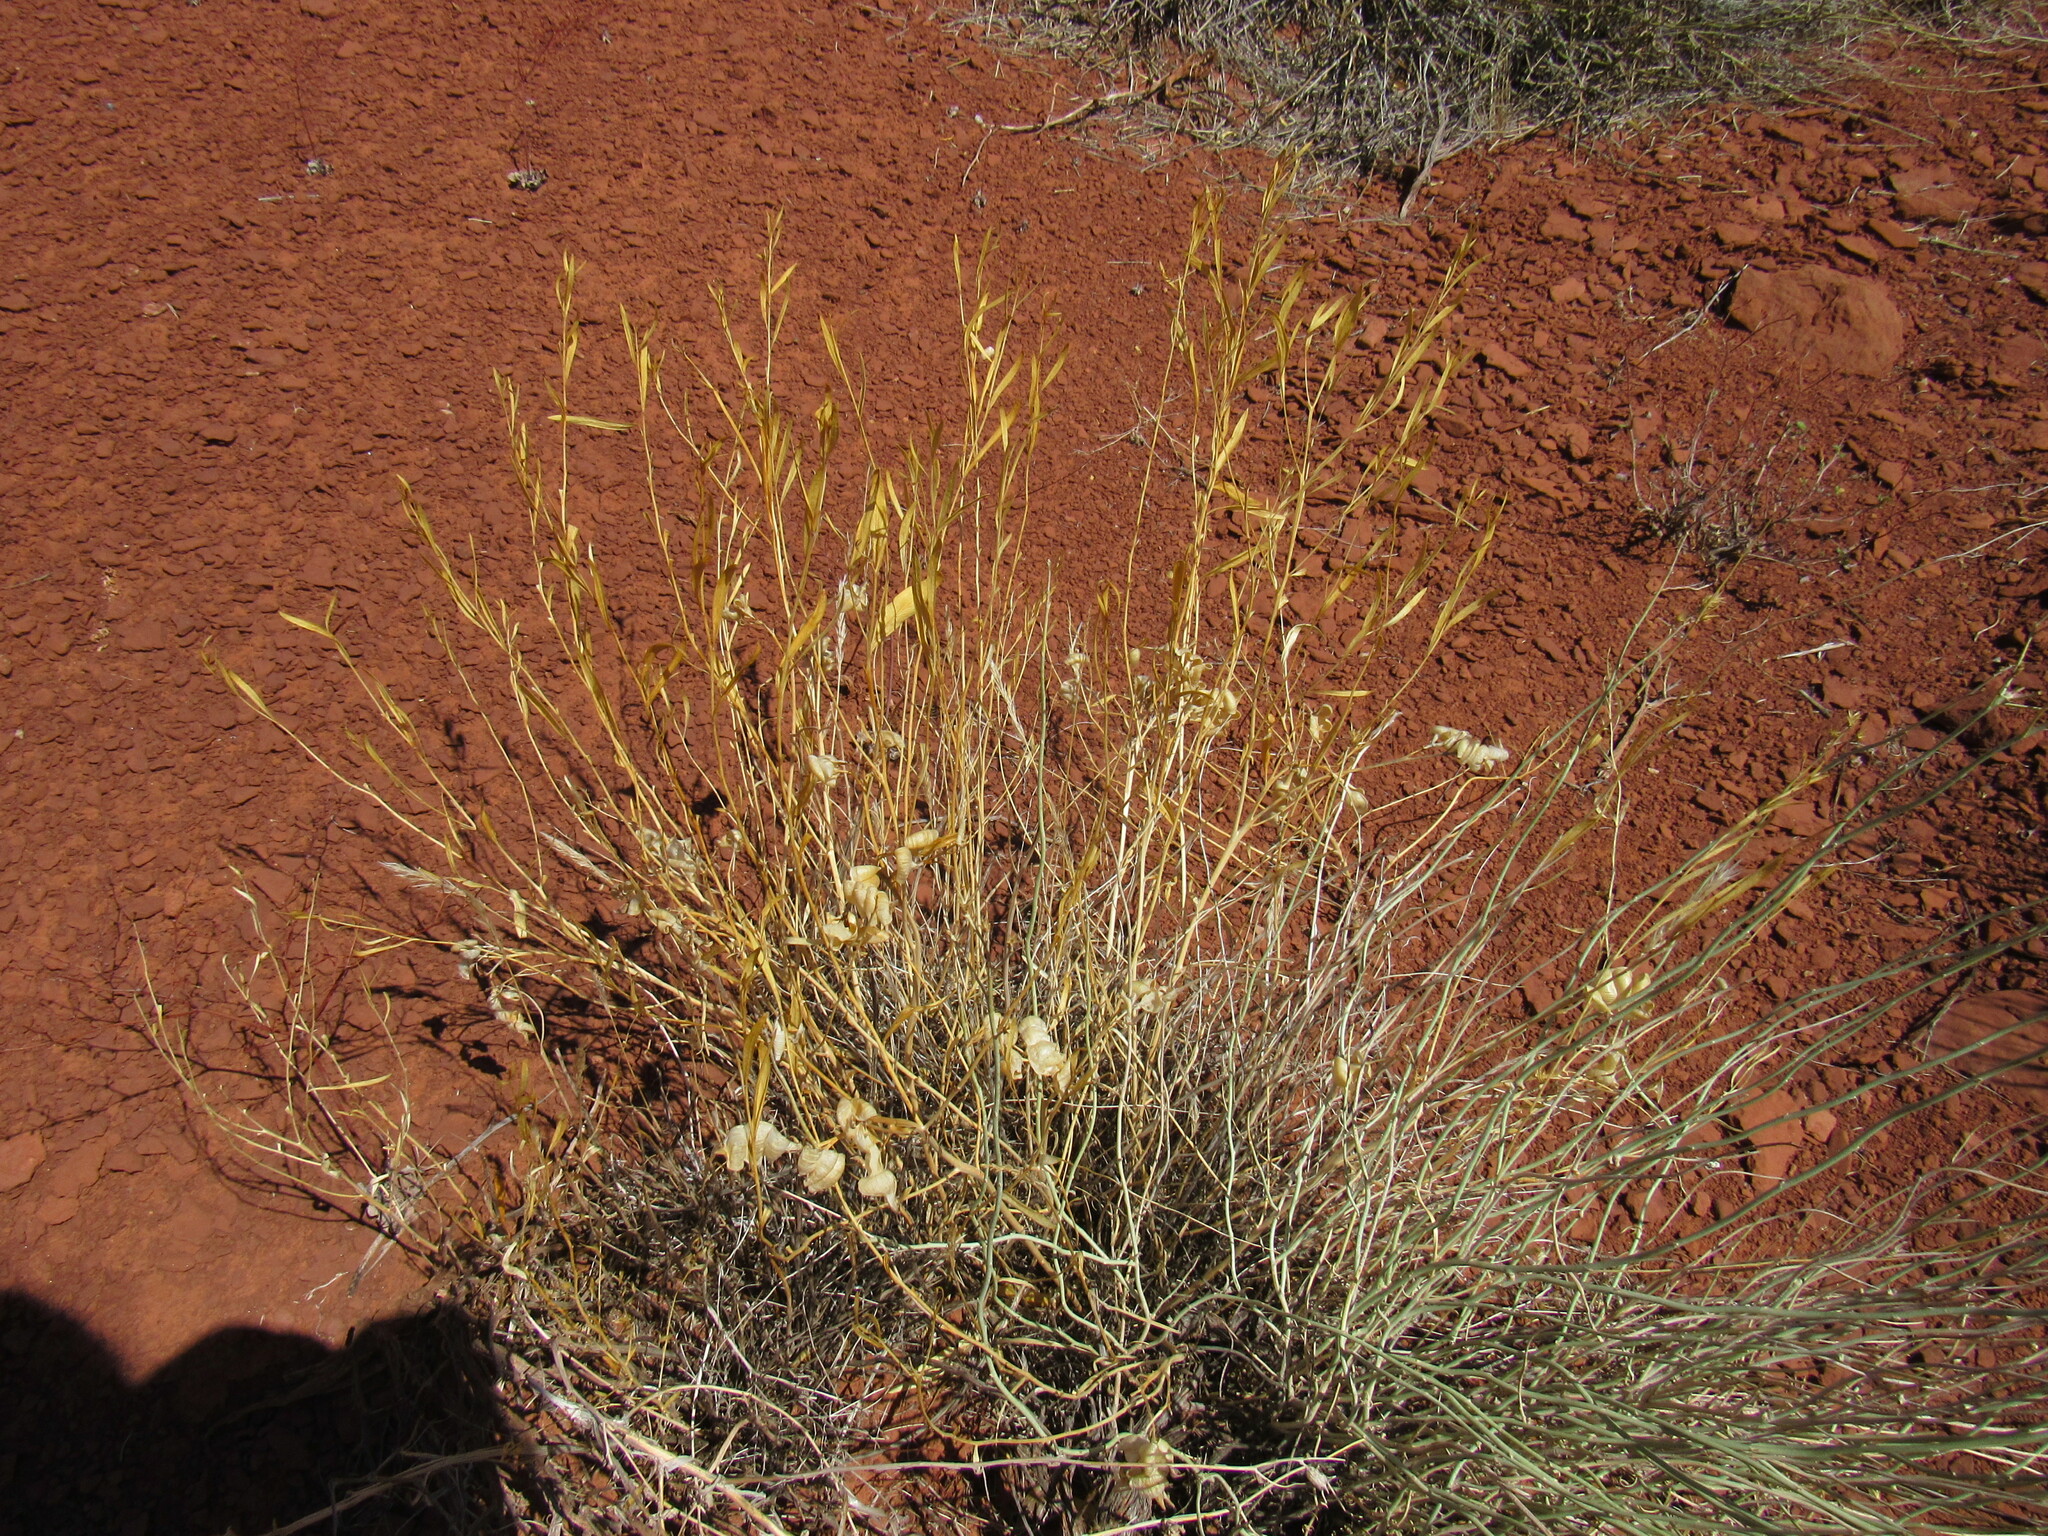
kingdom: Plantae
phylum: Tracheophyta
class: Magnoliopsida
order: Gentianales
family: Apocynaceae
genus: Amsonia
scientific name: Amsonia tomentosa
